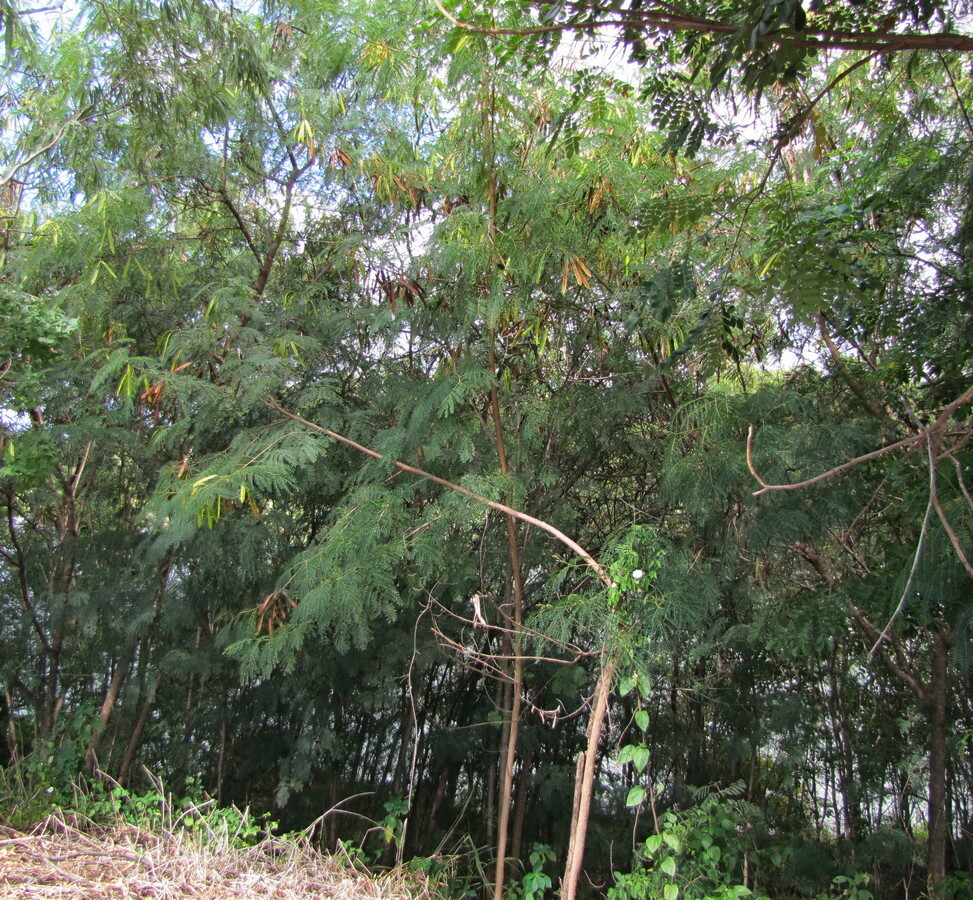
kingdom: Plantae
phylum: Tracheophyta
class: Magnoliopsida
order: Fabales
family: Fabaceae
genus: Leucaena
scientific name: Leucaena leucocephala
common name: White leadtree
